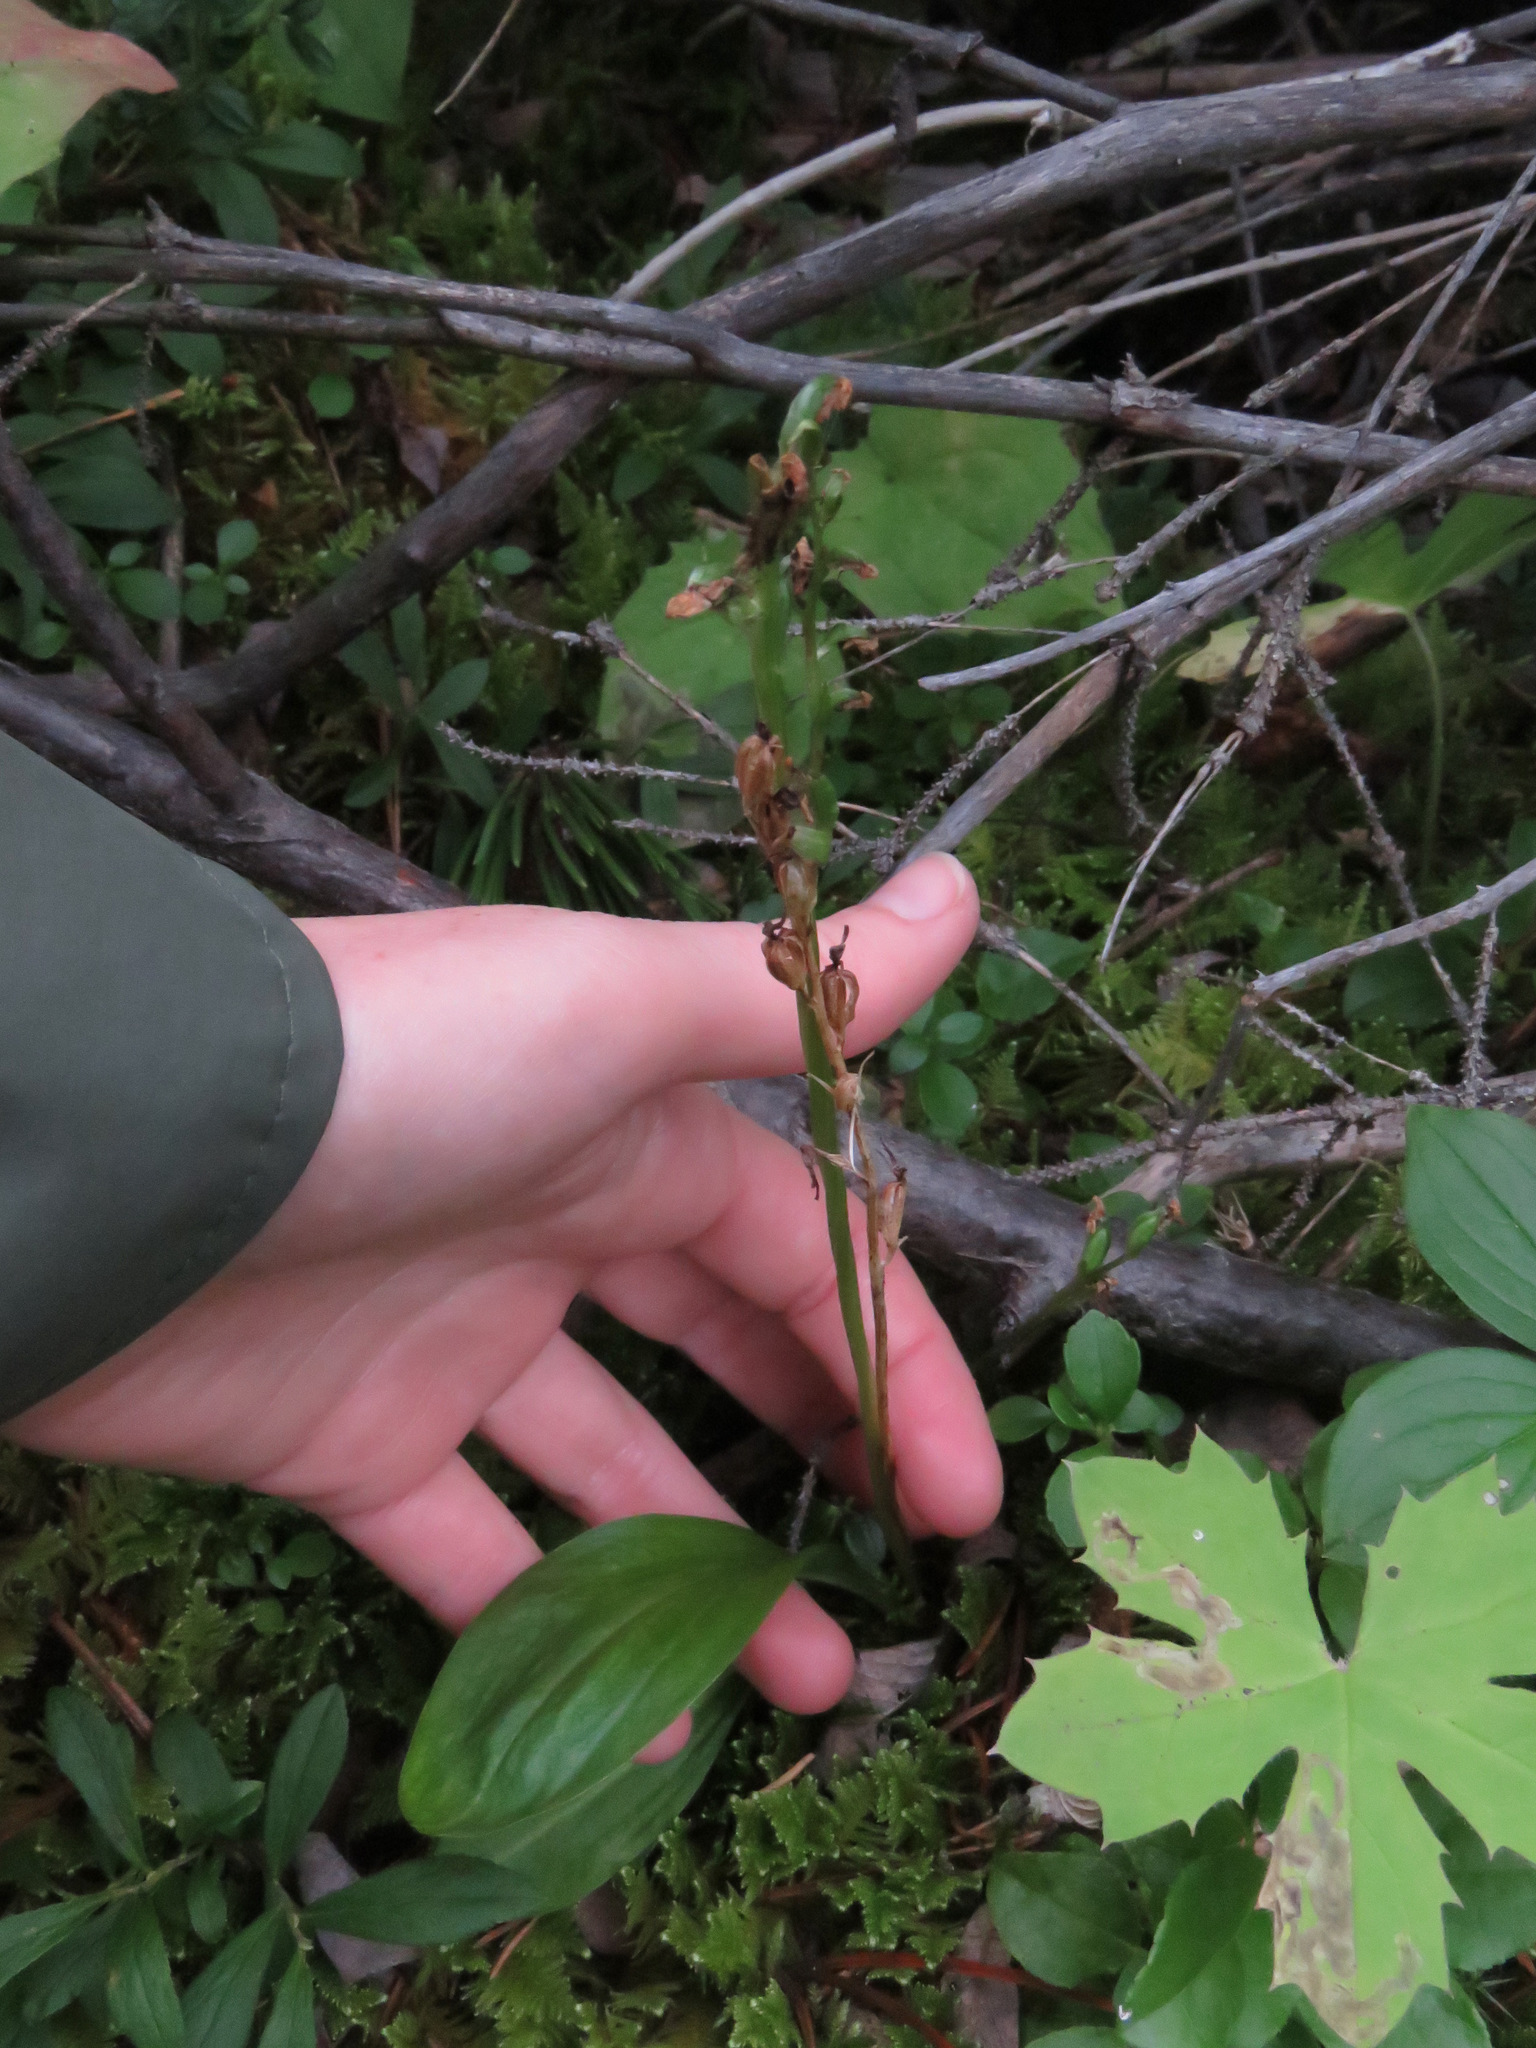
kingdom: Plantae
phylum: Tracheophyta
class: Liliopsida
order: Asparagales
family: Orchidaceae
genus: Platanthera
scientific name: Platanthera obtusata
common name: Blunt bog orchid
